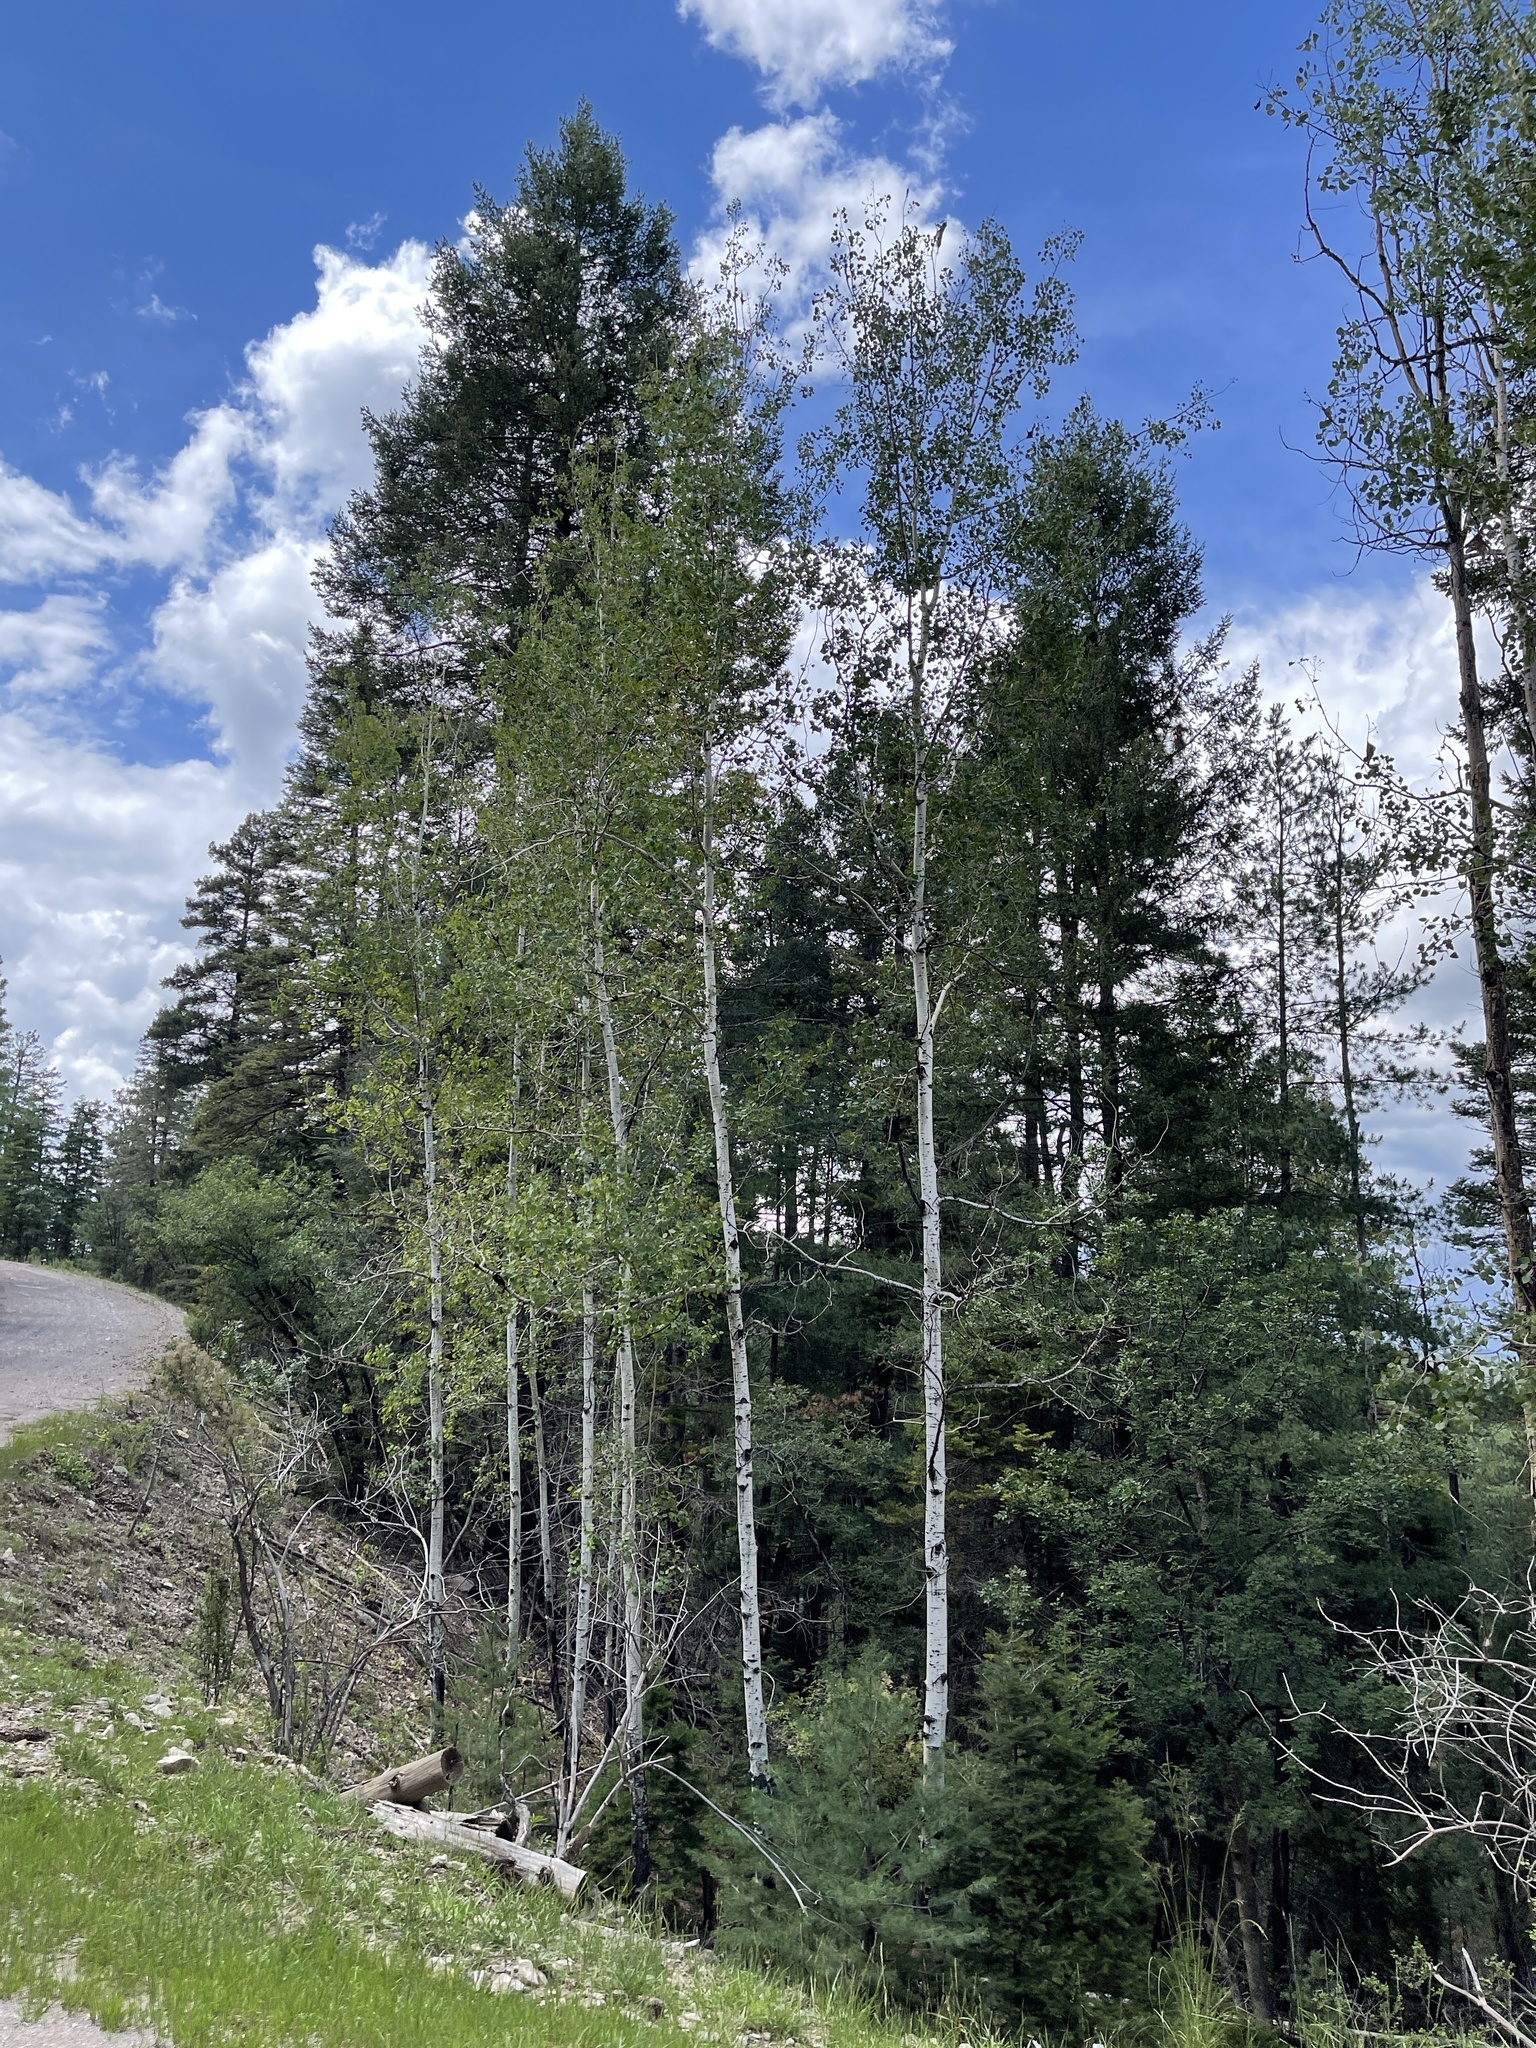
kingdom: Plantae
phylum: Tracheophyta
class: Magnoliopsida
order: Malpighiales
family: Salicaceae
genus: Populus
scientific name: Populus tremuloides
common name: Quaking aspen
